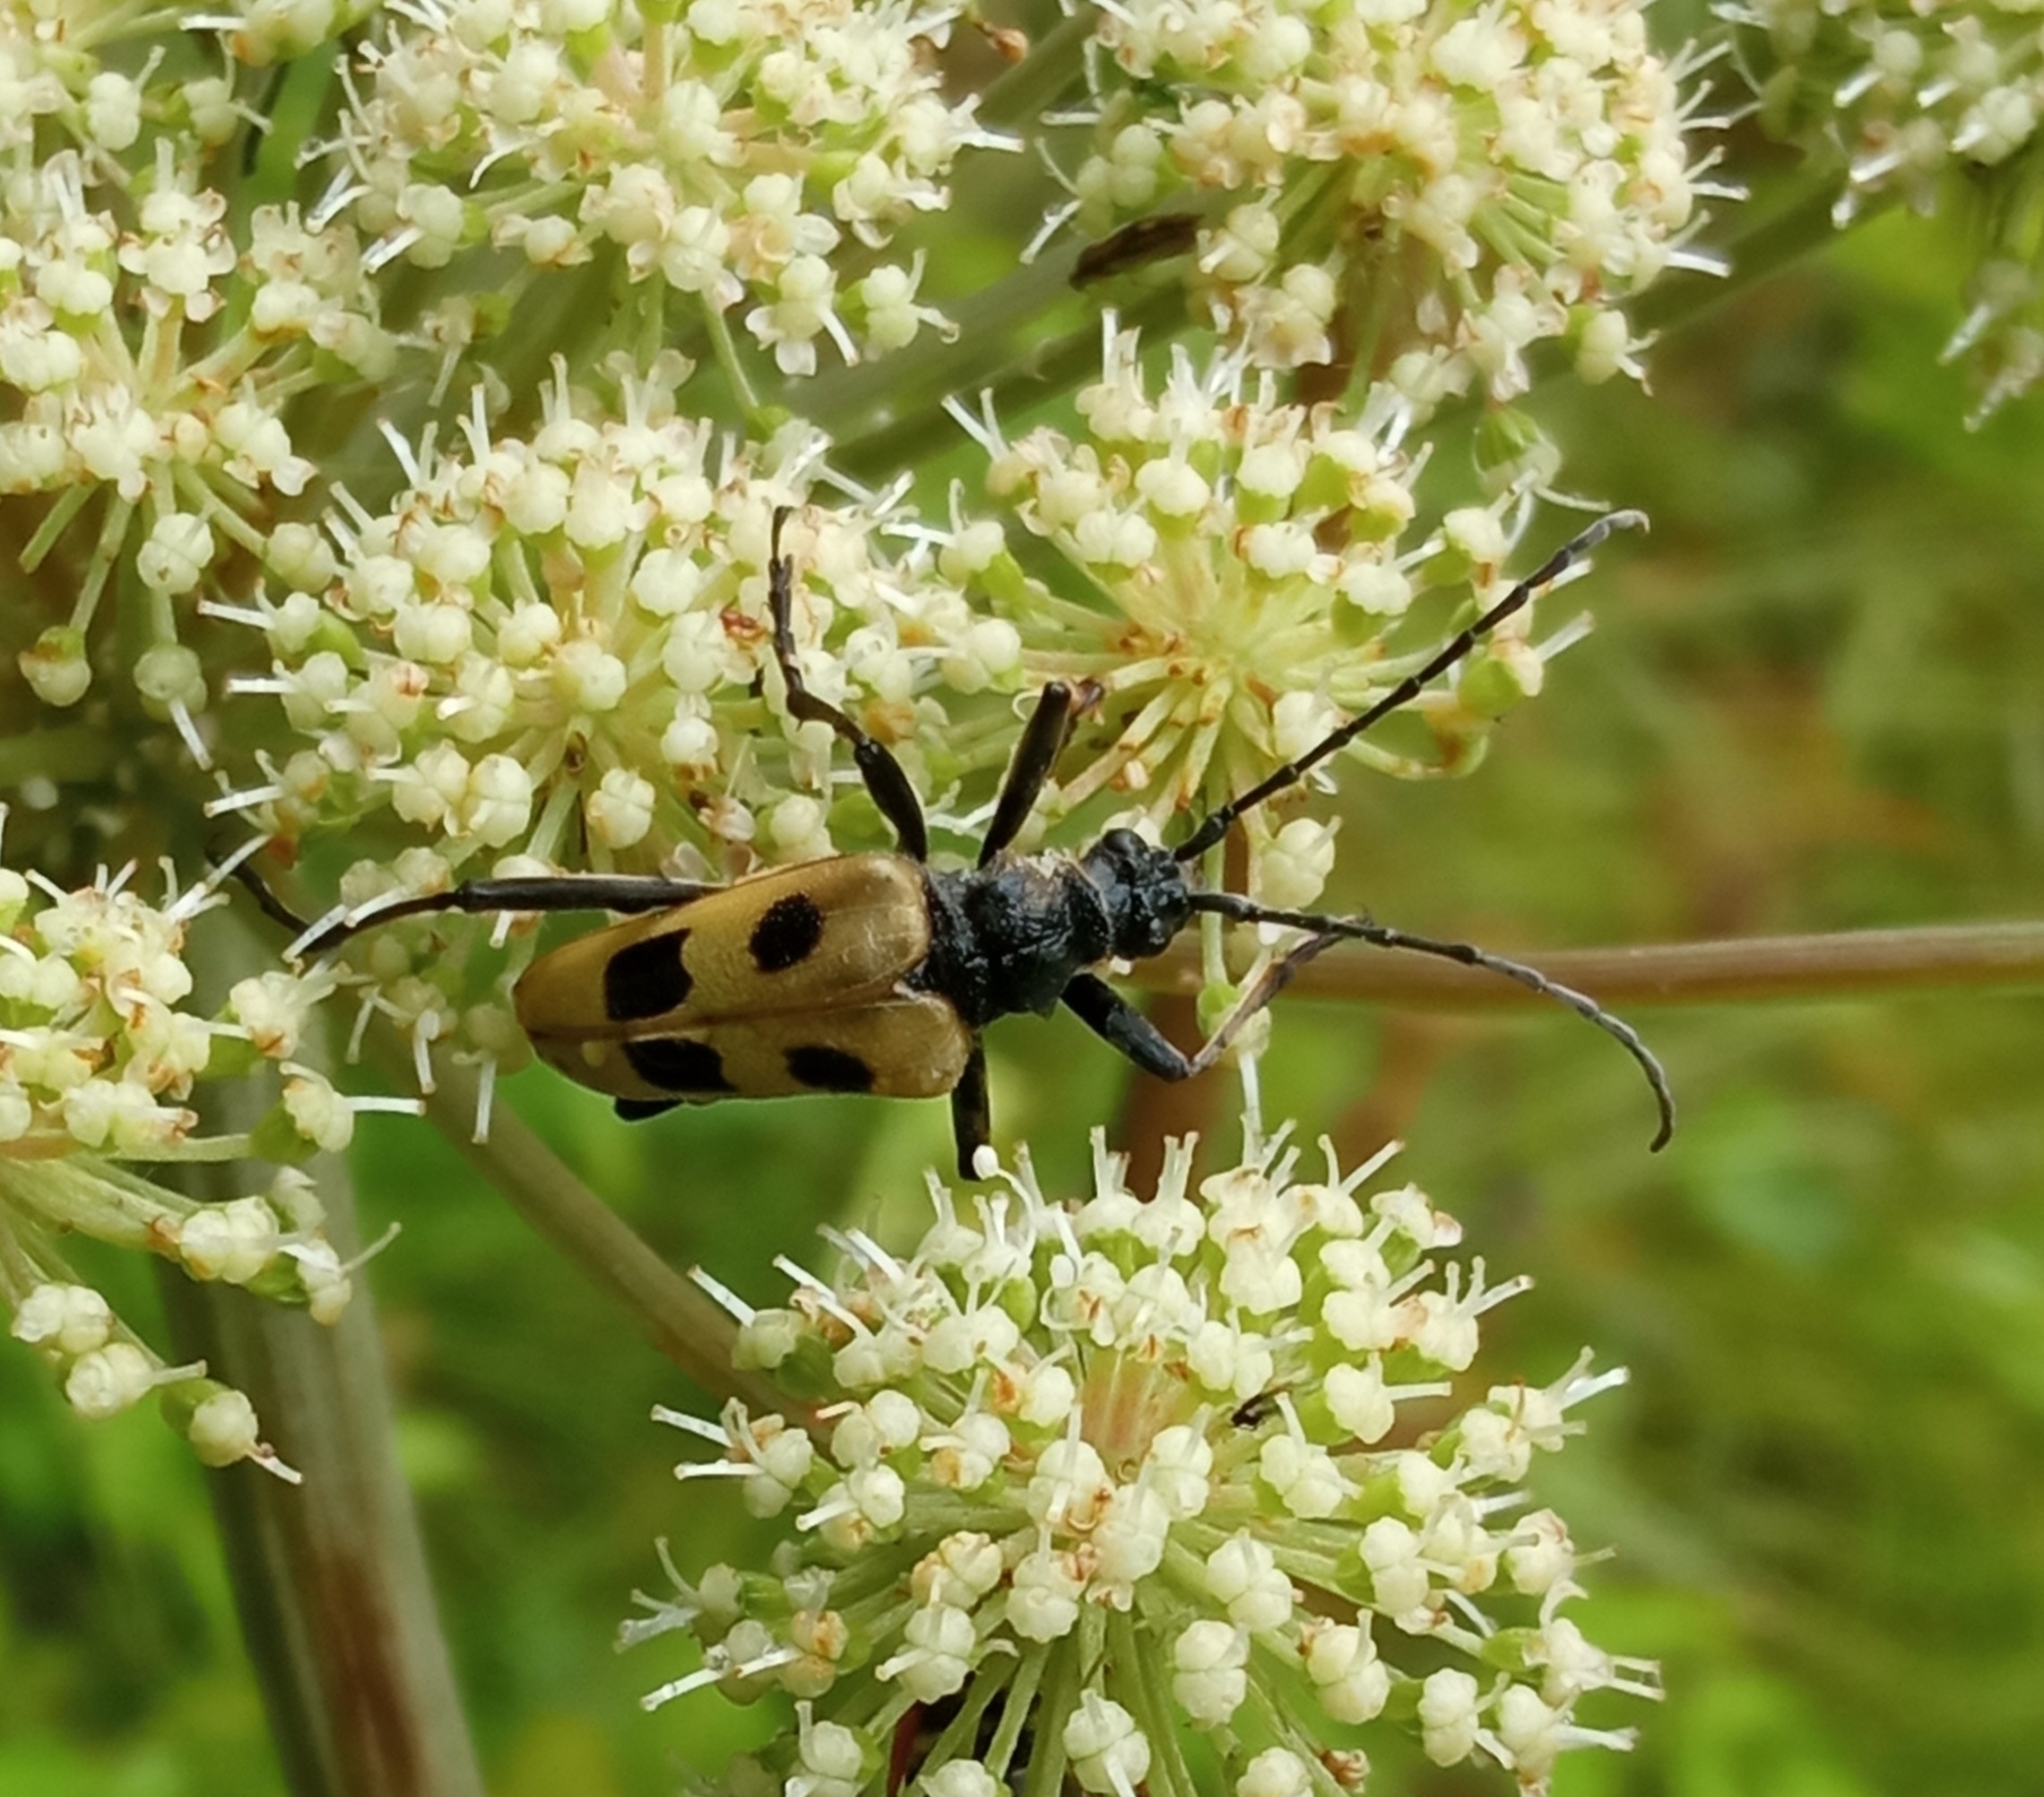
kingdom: Animalia
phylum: Arthropoda
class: Insecta
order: Coleoptera
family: Cerambycidae
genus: Pachyta
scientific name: Pachyta quadrimaculata
